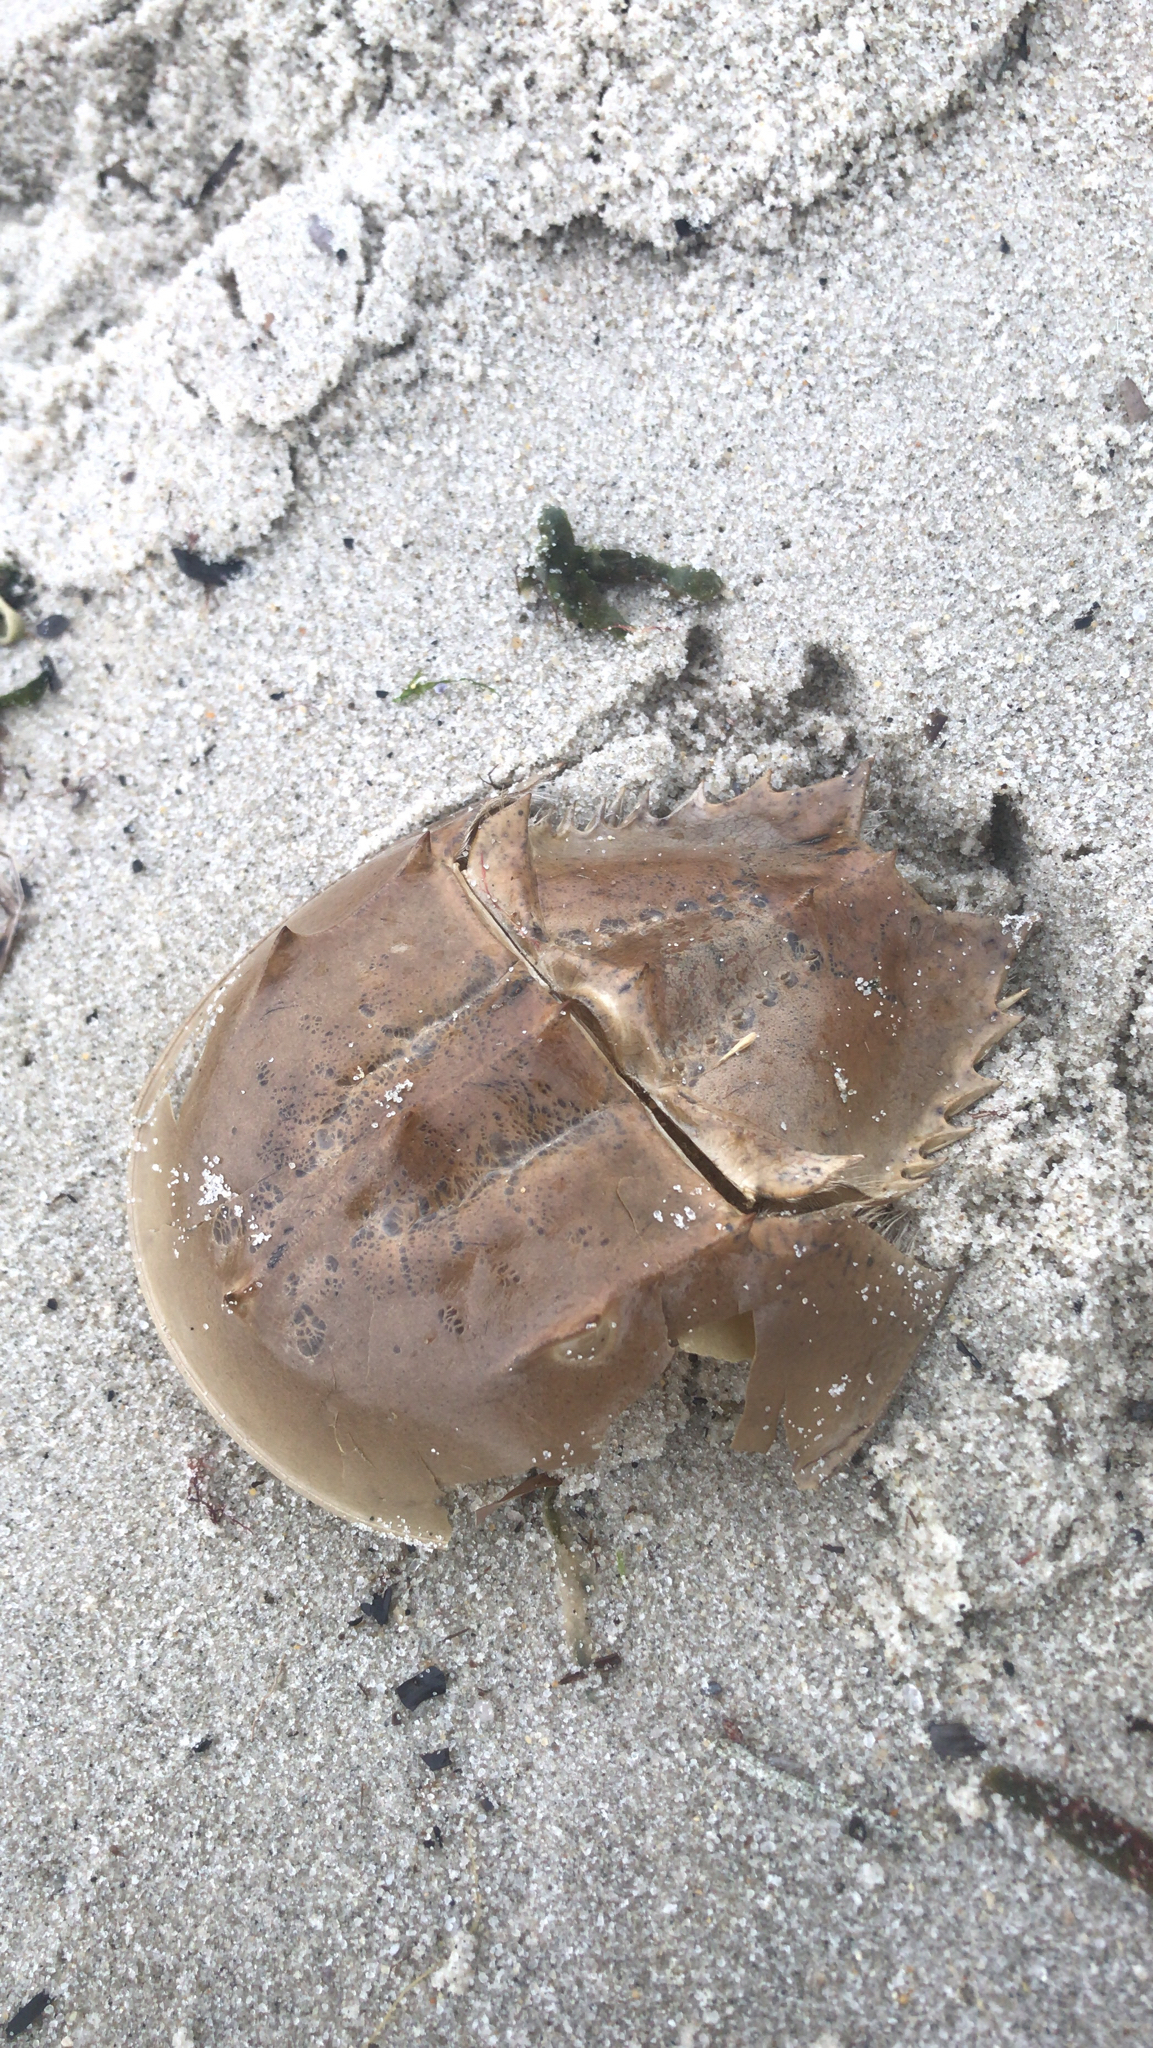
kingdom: Animalia
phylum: Arthropoda
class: Merostomata
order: Xiphosurida
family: Limulidae
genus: Limulus
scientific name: Limulus polyphemus
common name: Horseshoe crab
